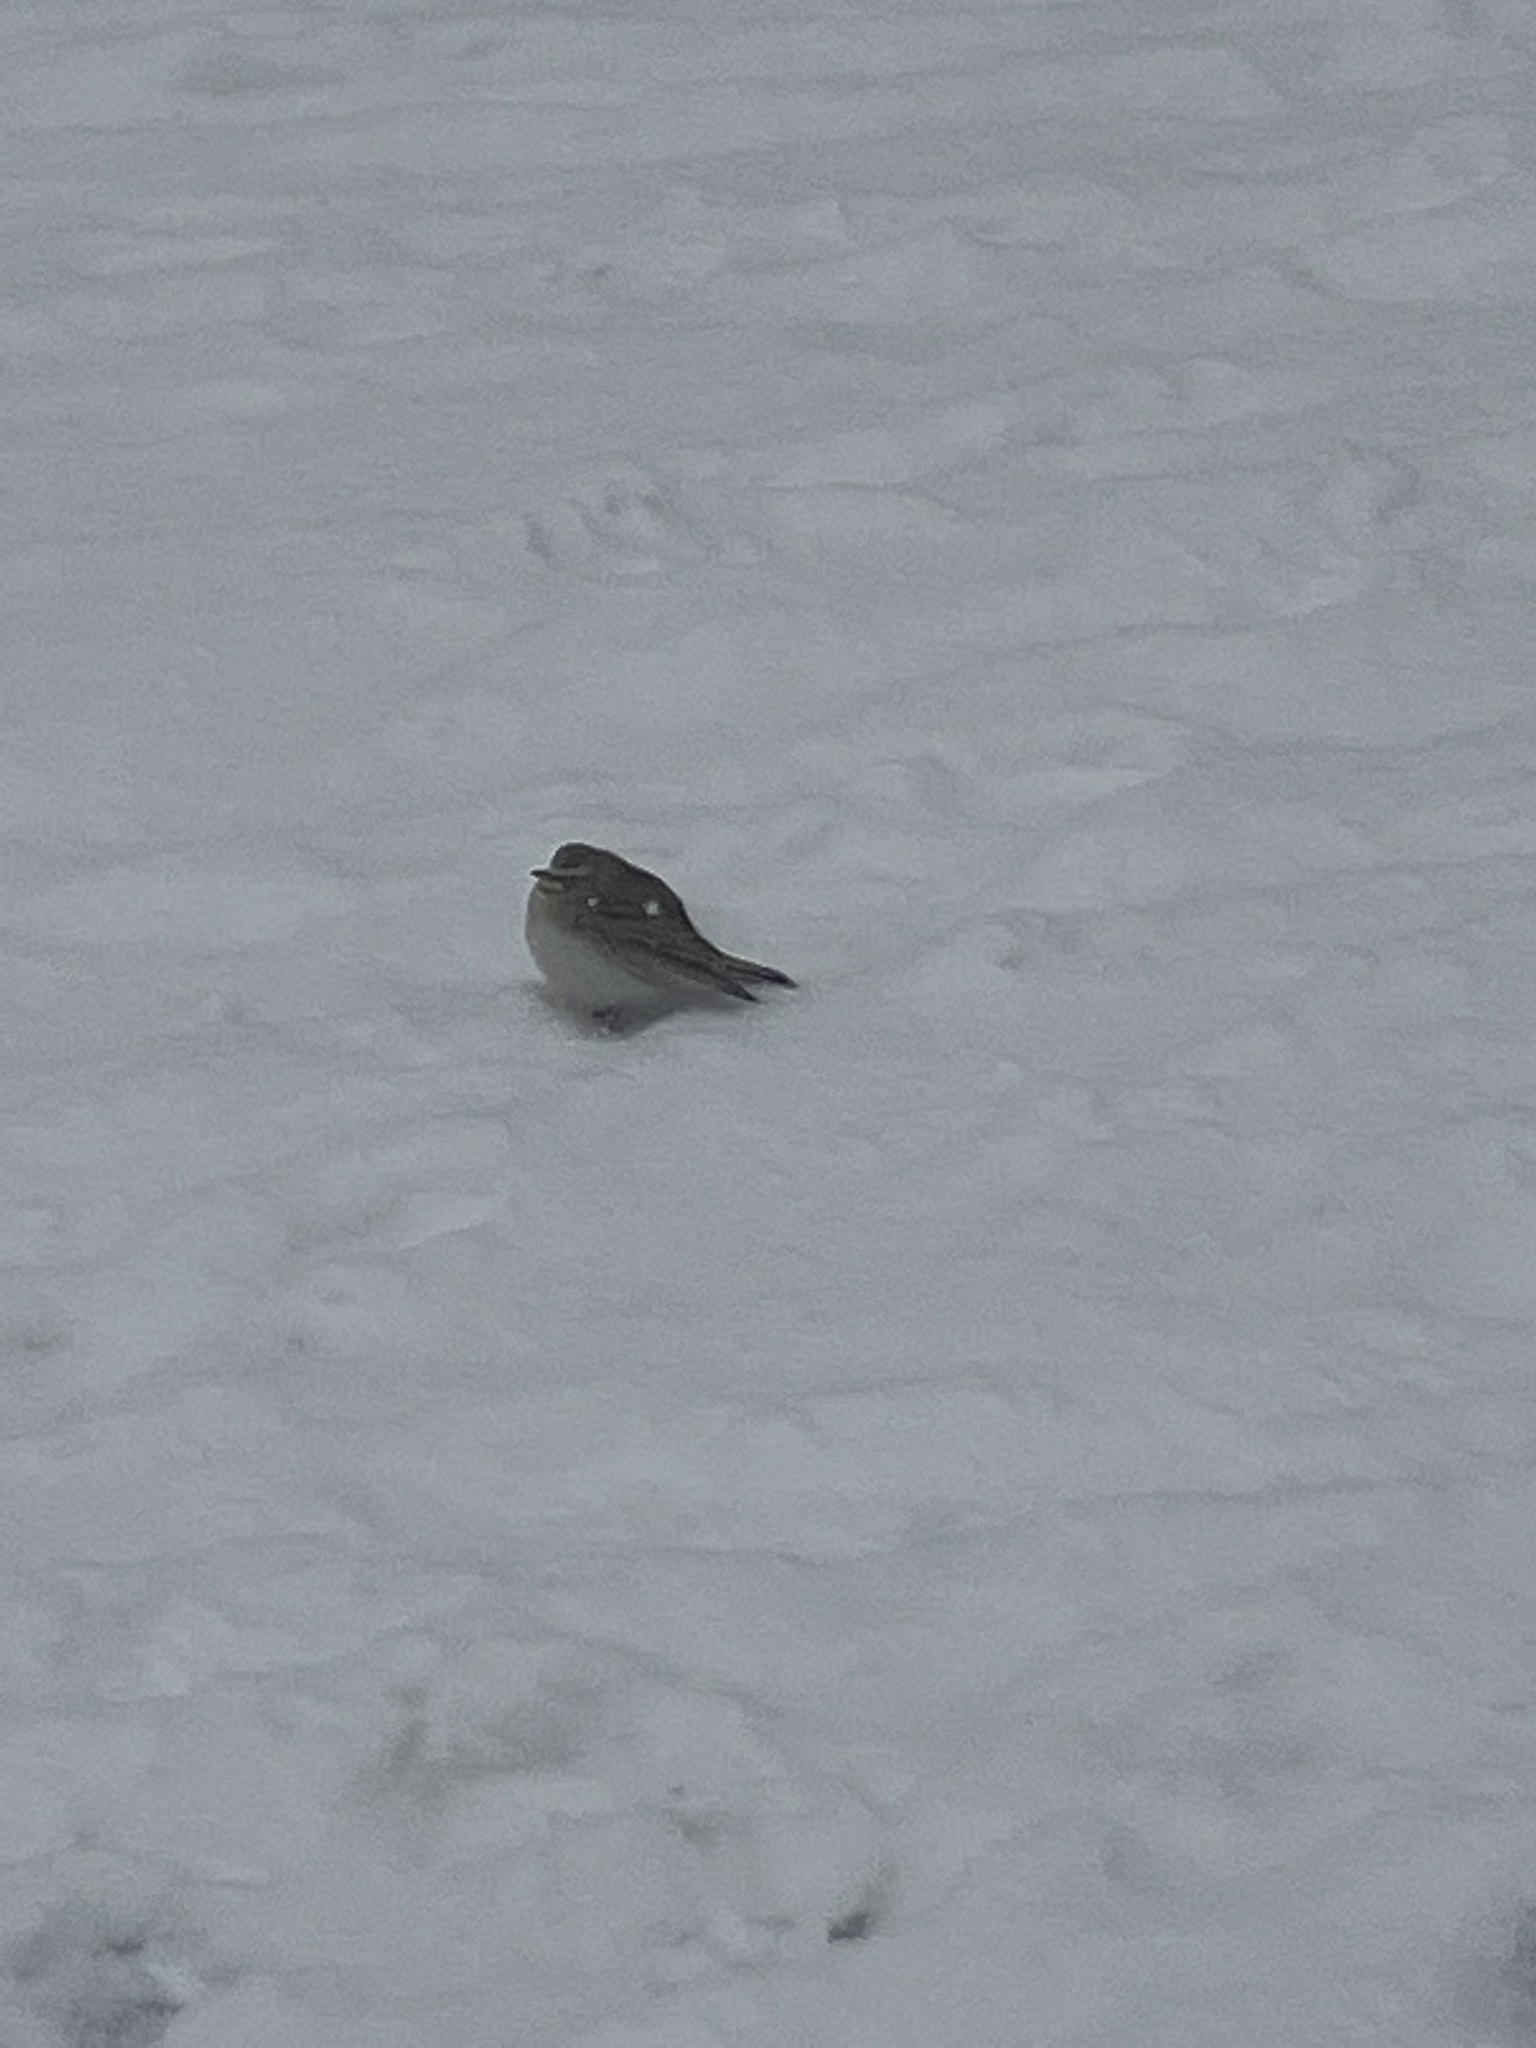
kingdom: Animalia
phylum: Chordata
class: Aves
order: Passeriformes
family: Alaudidae
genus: Eremophila
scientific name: Eremophila alpestris
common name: Horned lark
